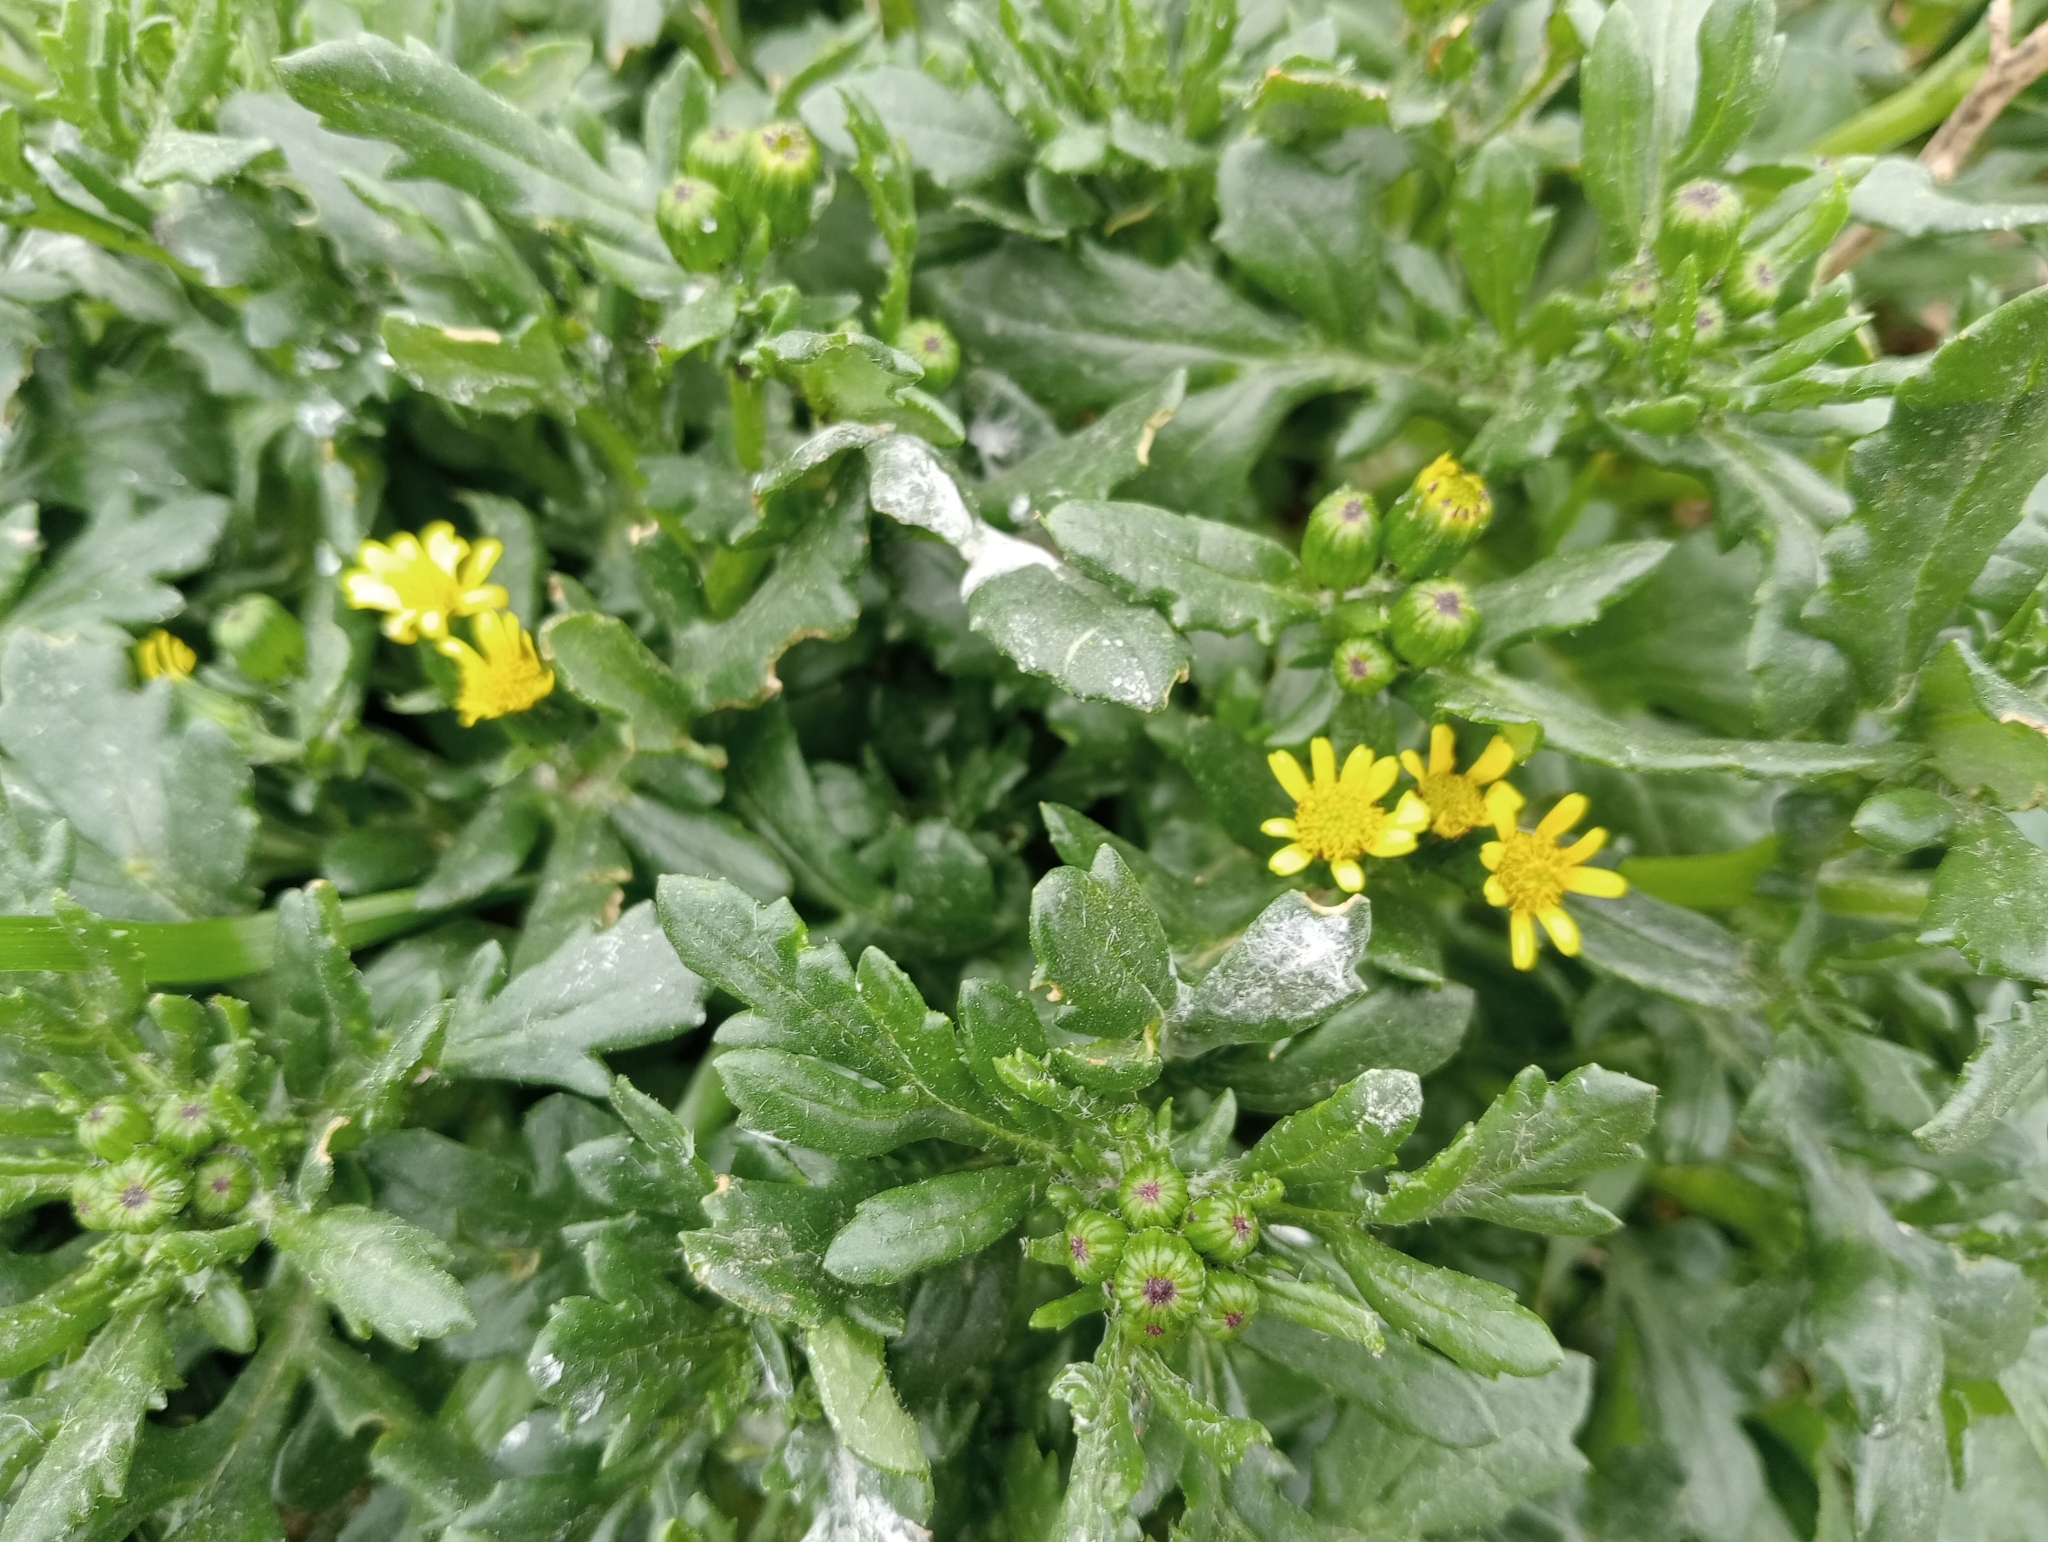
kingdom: Plantae
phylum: Tracheophyta
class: Magnoliopsida
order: Asterales
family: Asteraceae
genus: Senecio
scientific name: Senecio carnosulus
